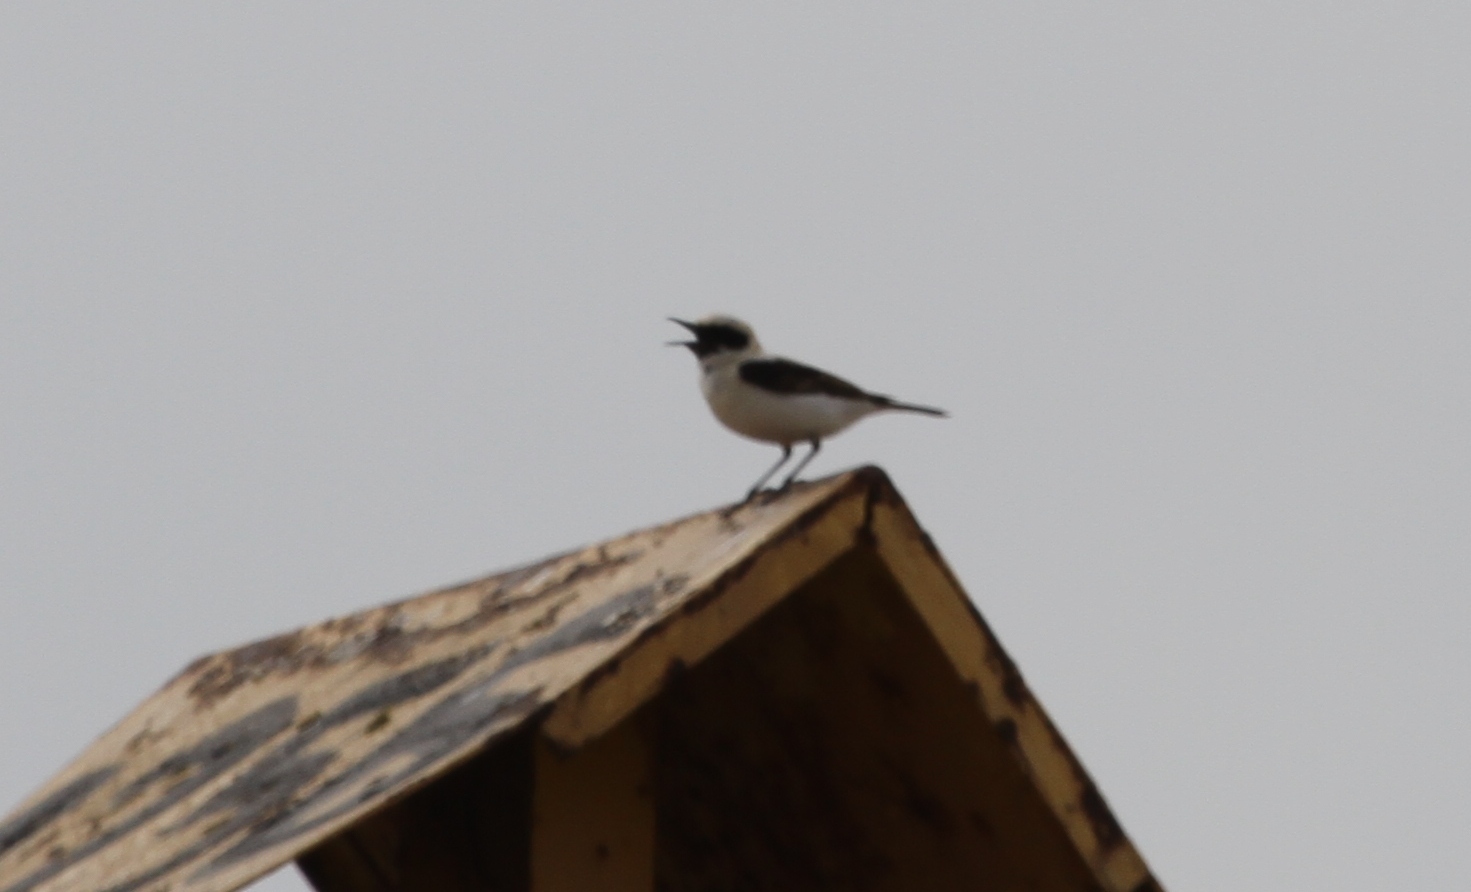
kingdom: Animalia
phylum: Chordata
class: Aves
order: Passeriformes
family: Muscicapidae
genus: Oenanthe
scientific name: Oenanthe hispanica
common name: Black-eared wheatear
